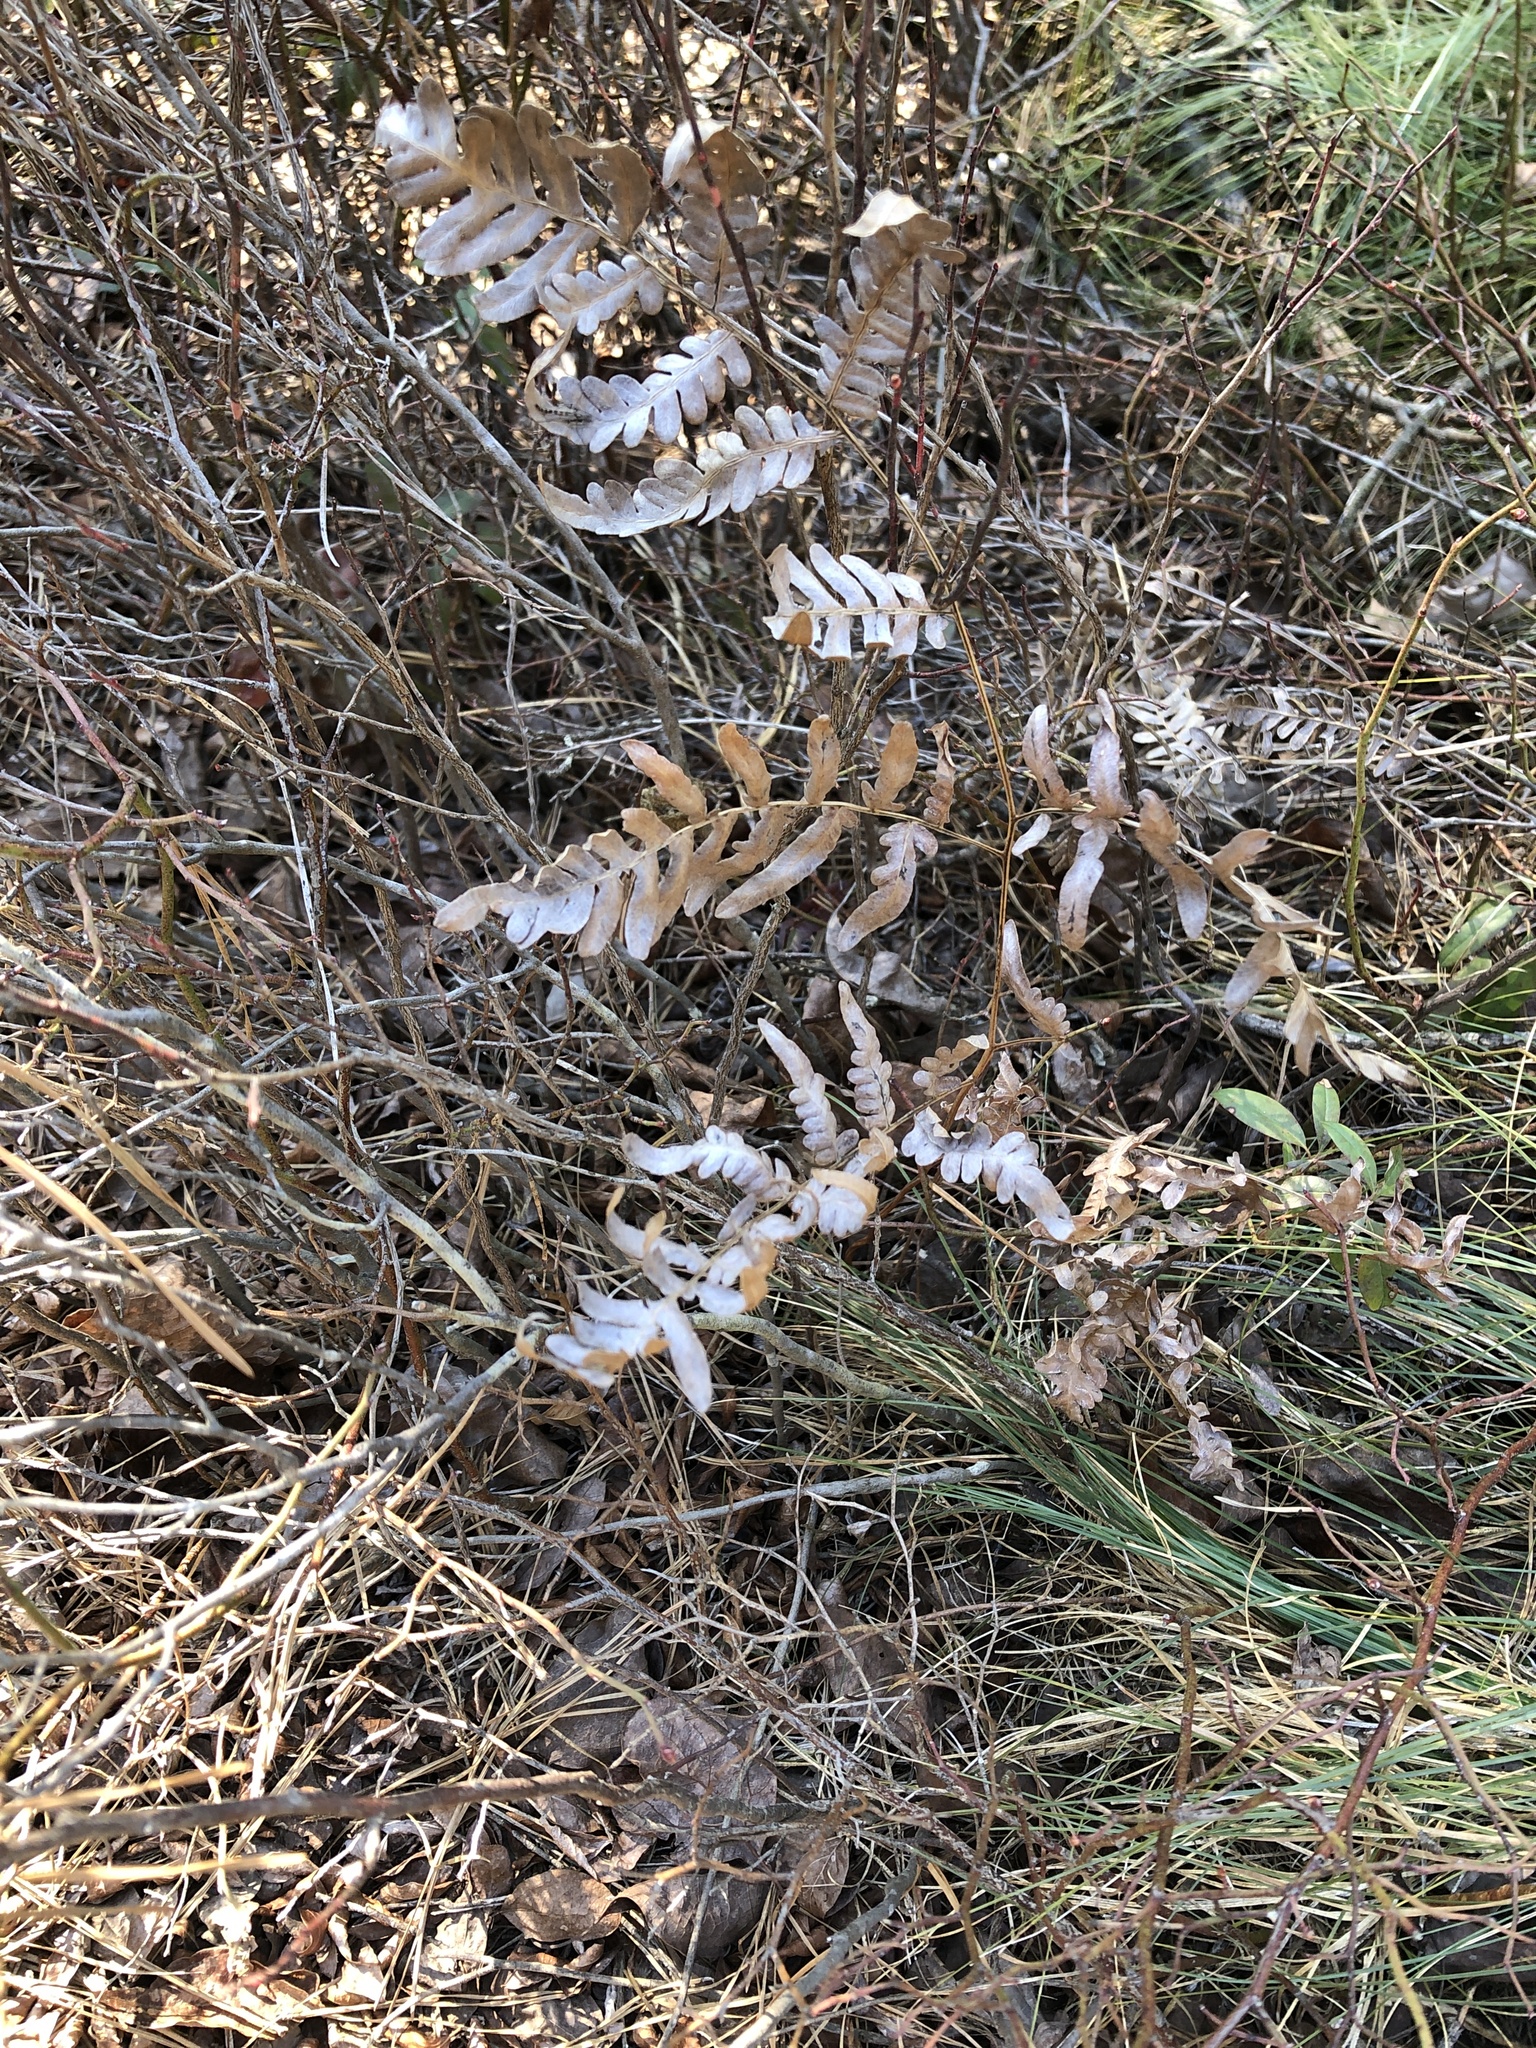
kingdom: Plantae
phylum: Tracheophyta
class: Polypodiopsida
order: Polypodiales
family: Dennstaedtiaceae
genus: Pteridium
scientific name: Pteridium aquilinum
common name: Bracken
